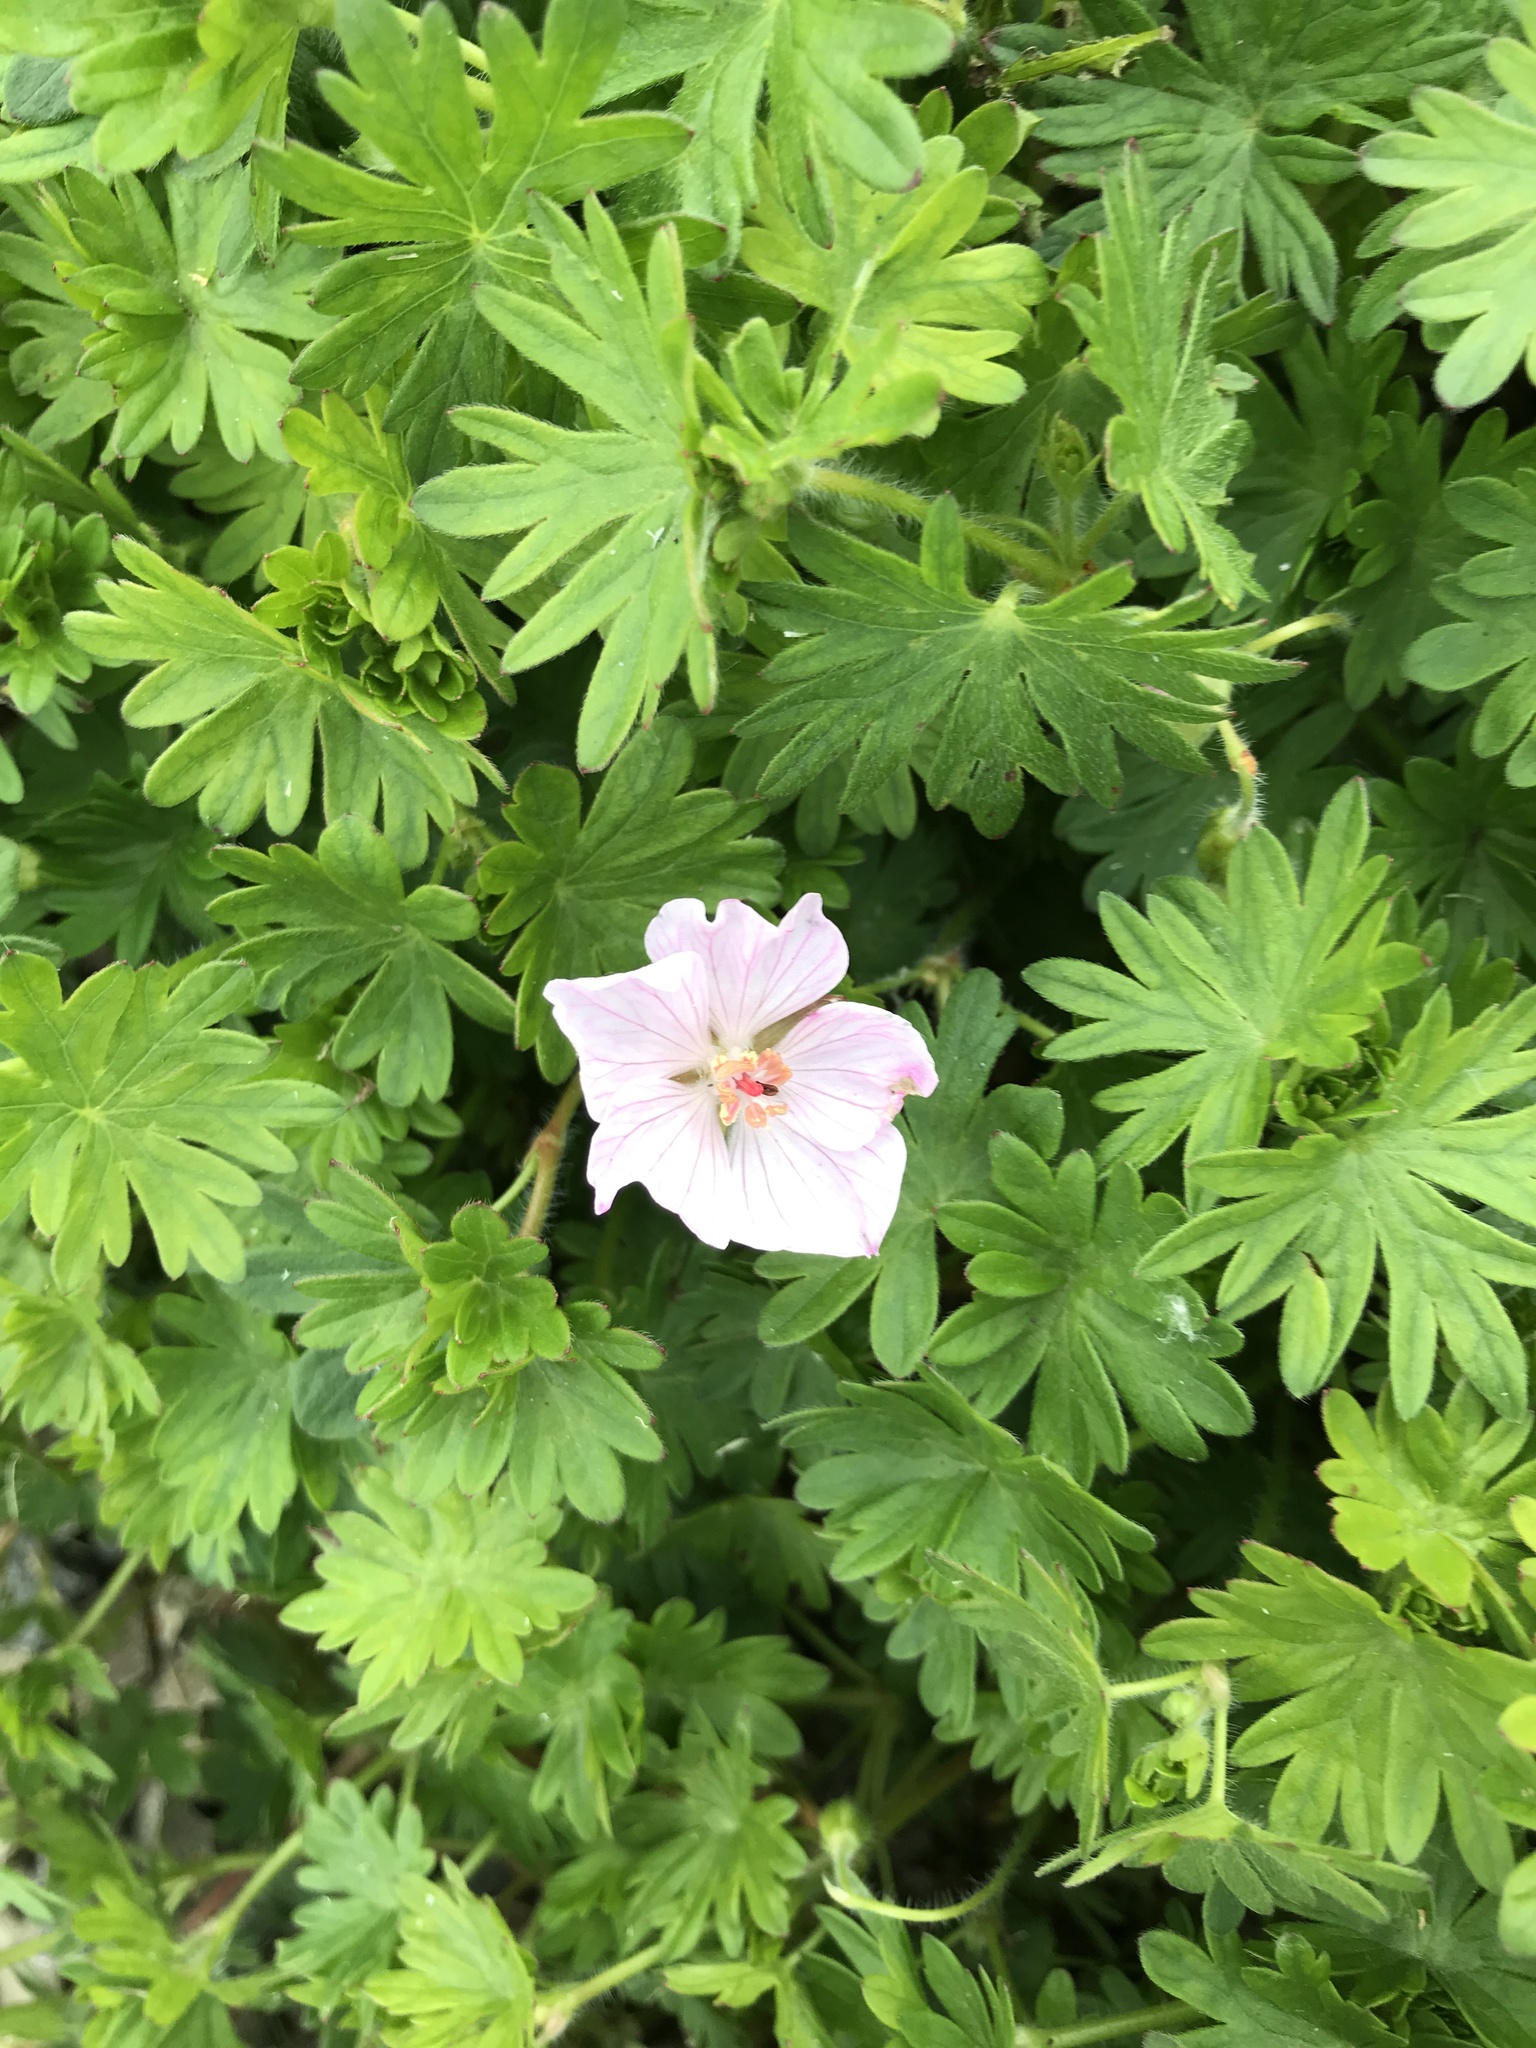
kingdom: Plantae
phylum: Tracheophyta
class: Magnoliopsida
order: Geraniales
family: Geraniaceae
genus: Geranium
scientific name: Geranium sanguineum
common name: Bloody crane's-bill
